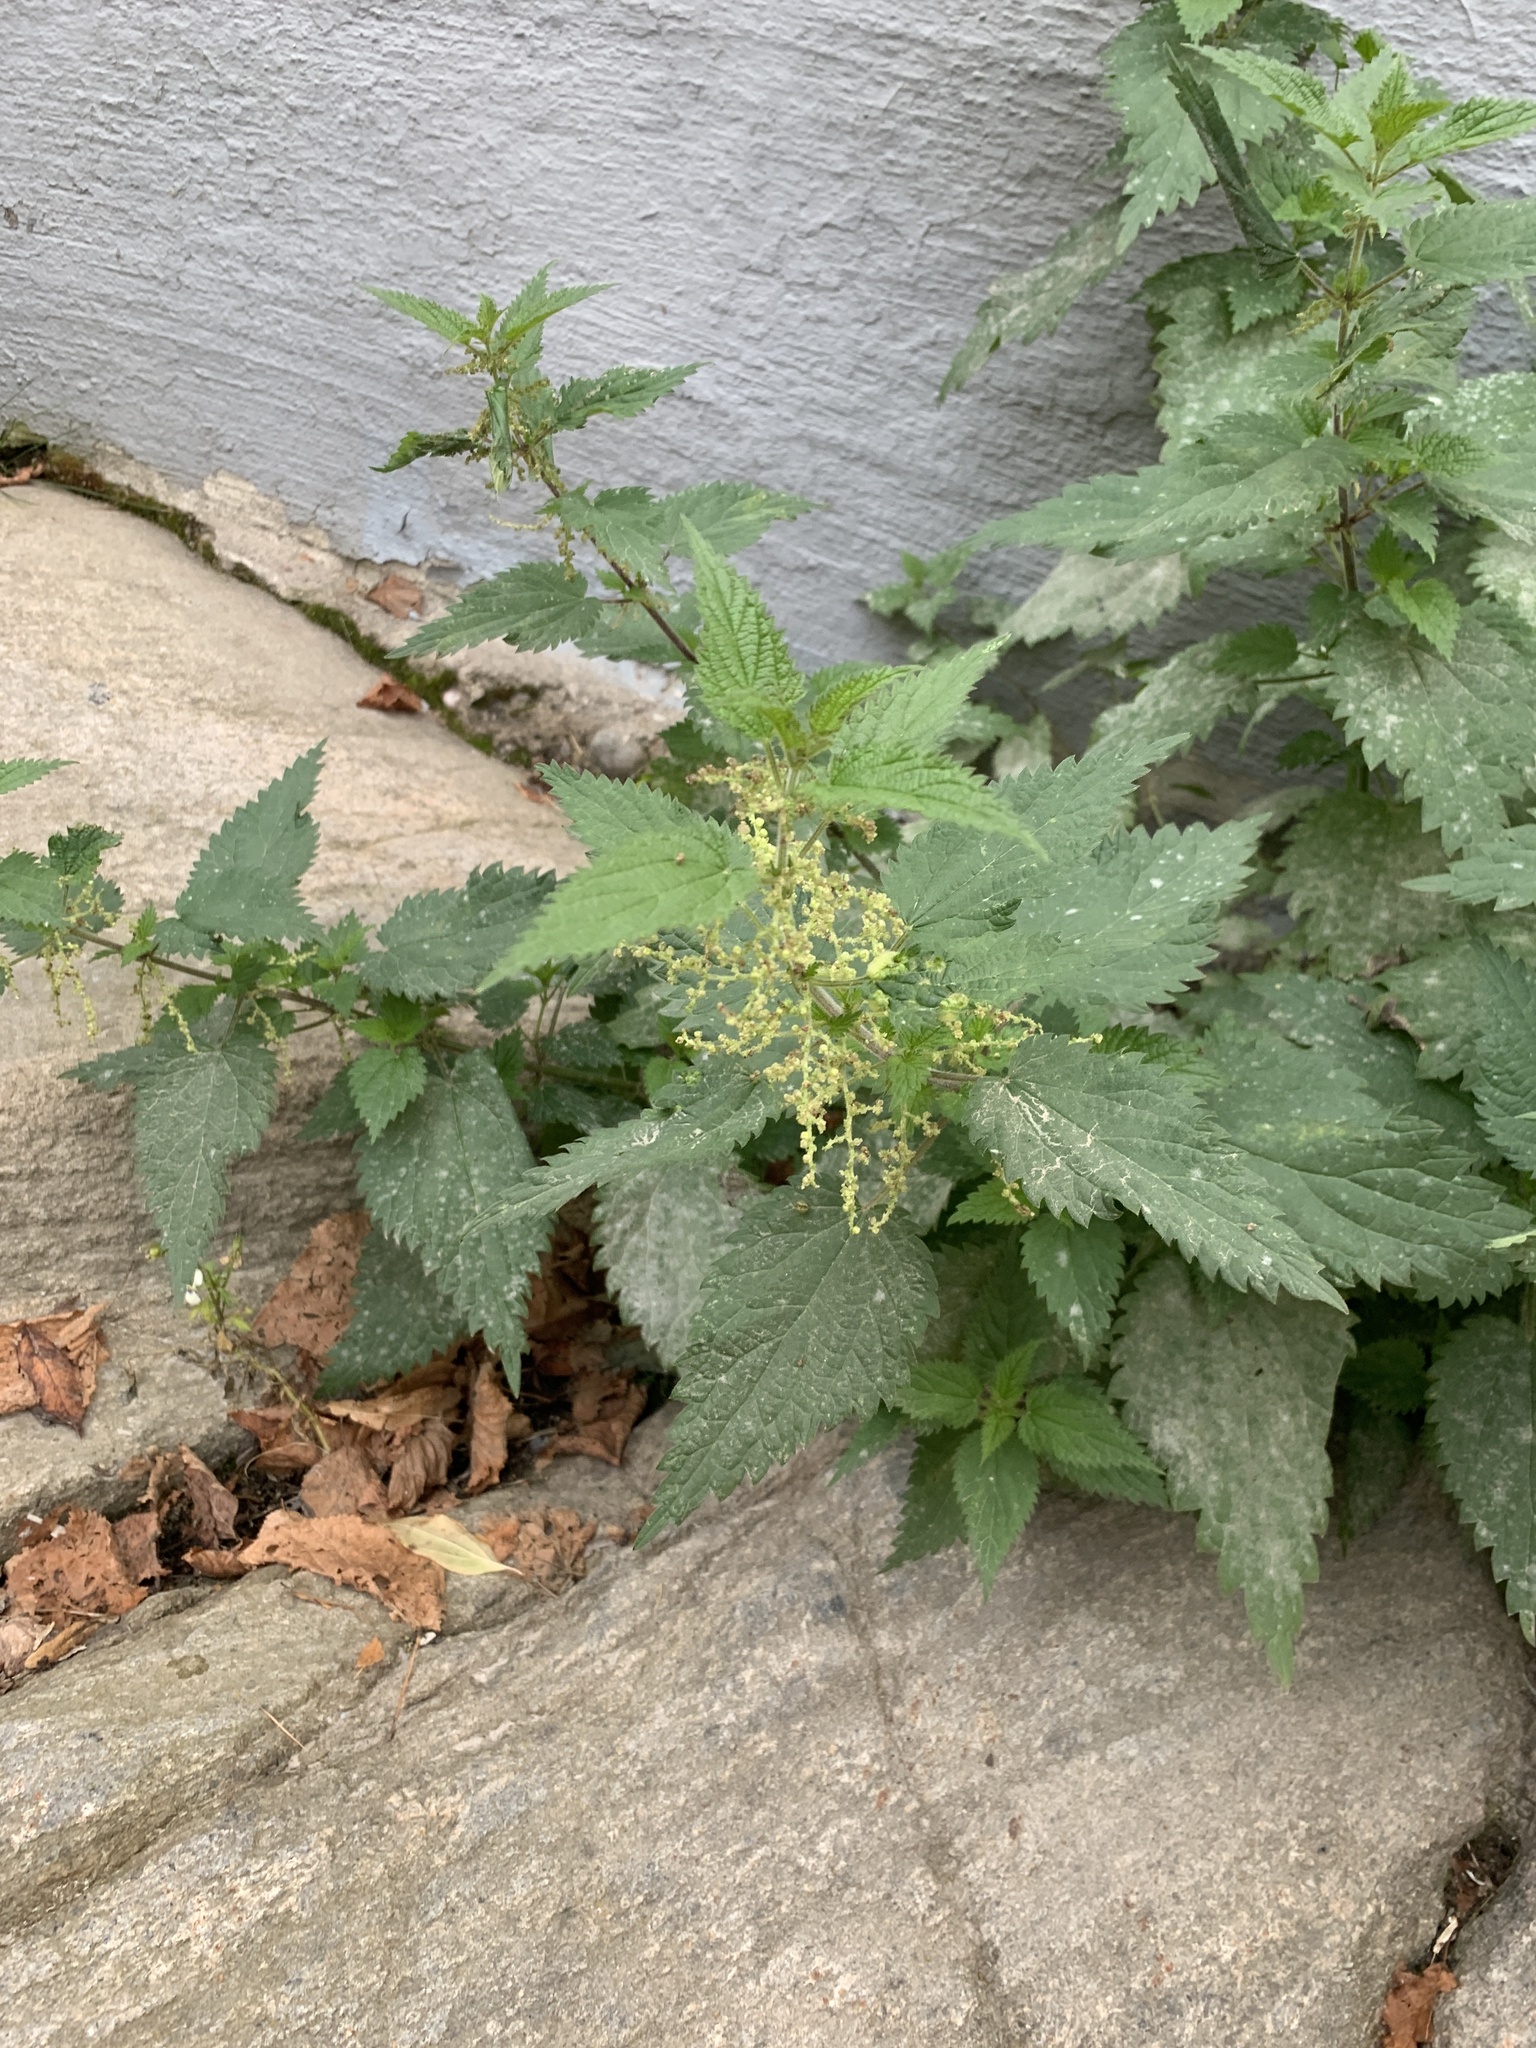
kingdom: Plantae
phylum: Tracheophyta
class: Magnoliopsida
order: Rosales
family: Urticaceae
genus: Urtica
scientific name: Urtica dioica
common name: Common nettle
